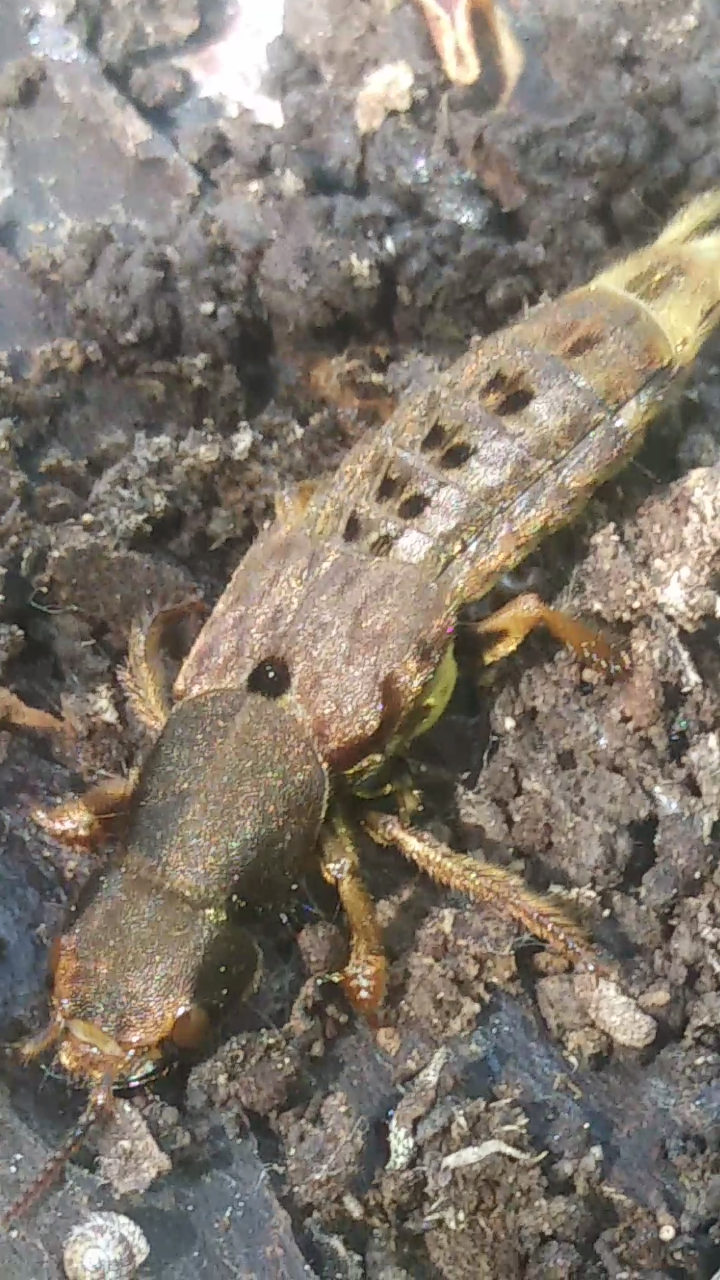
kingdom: Animalia
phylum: Arthropoda
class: Insecta
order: Coleoptera
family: Staphylinidae
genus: Platydracus
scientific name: Platydracus maculosus
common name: Brown rove beetle
